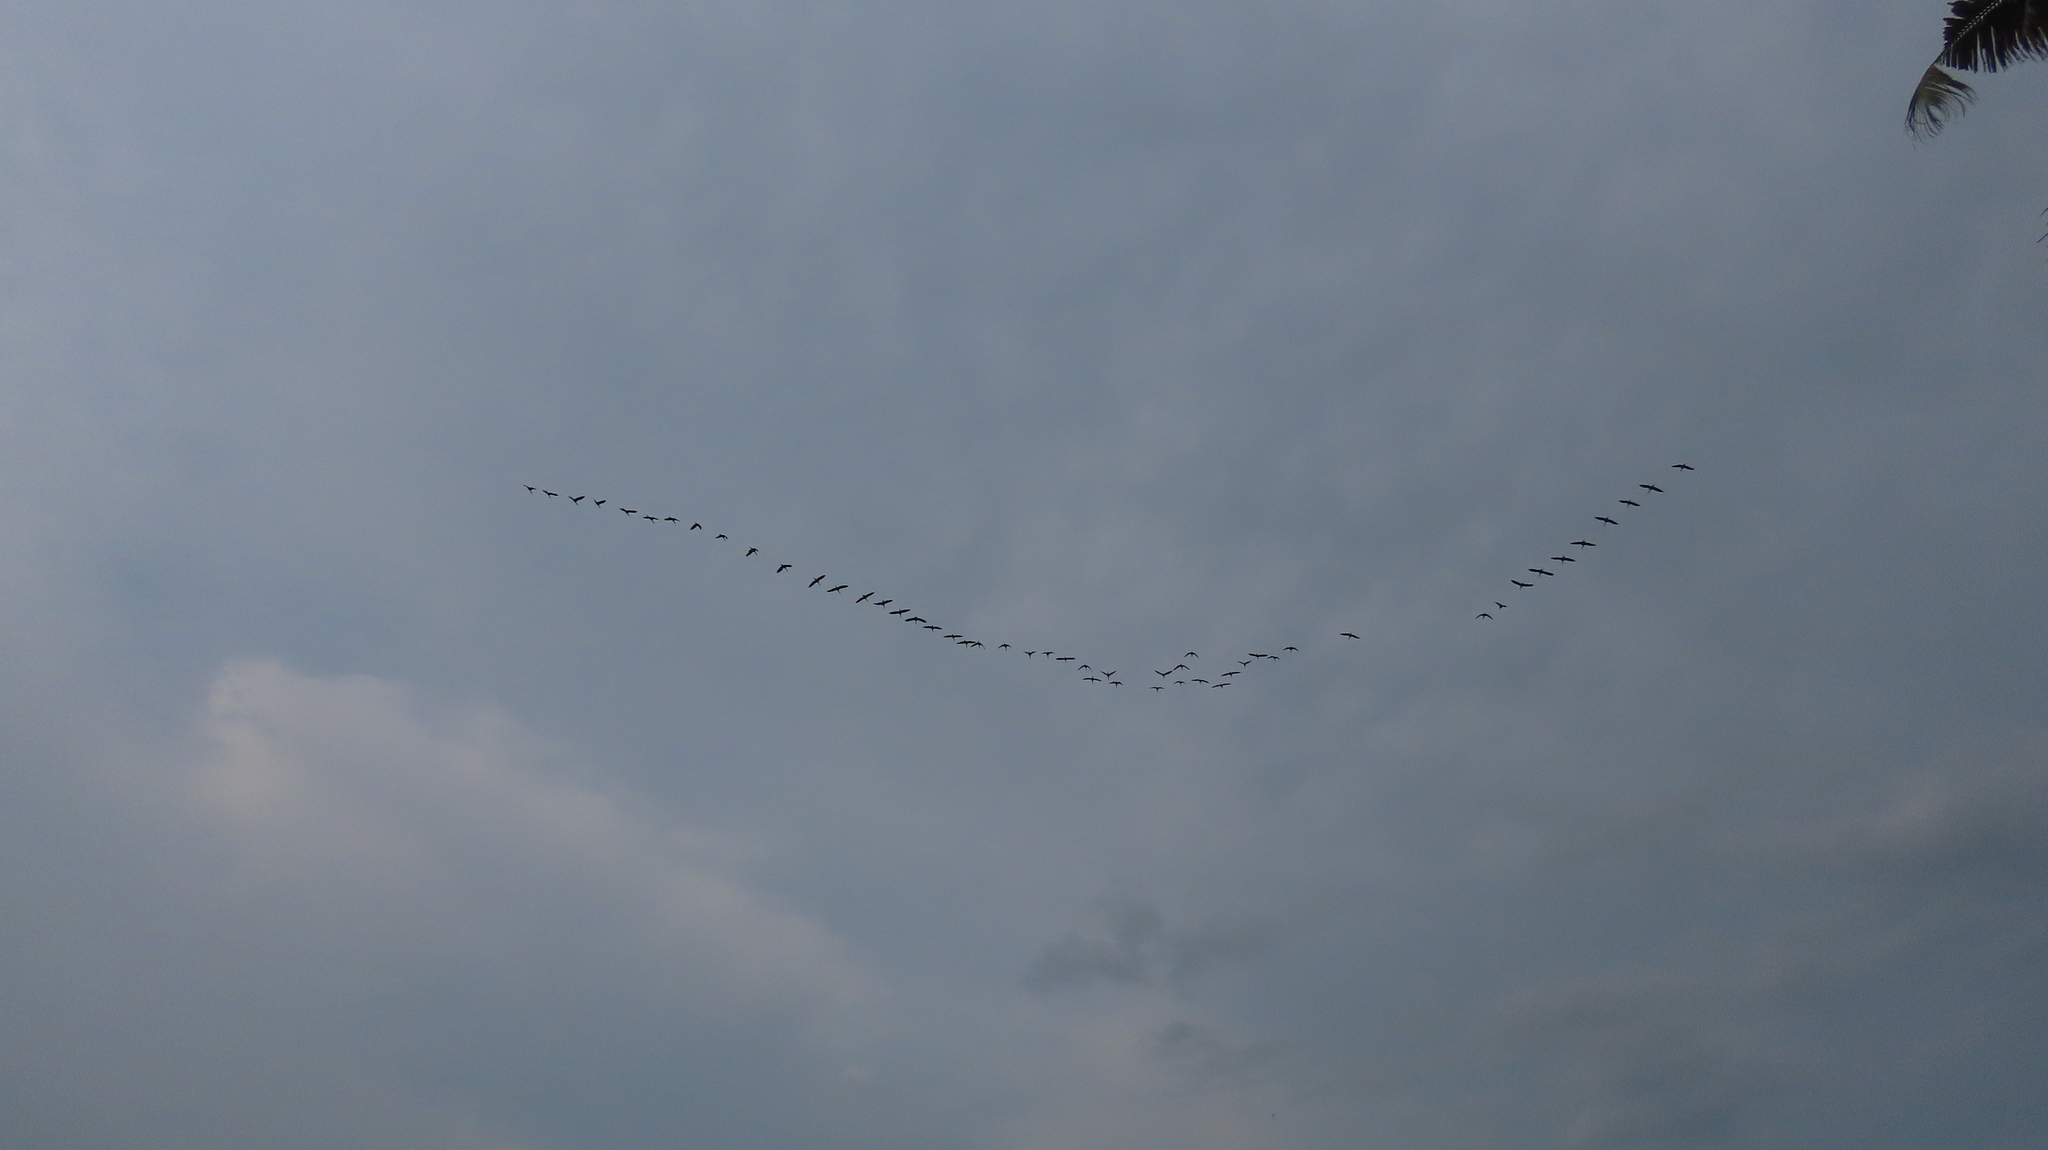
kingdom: Animalia
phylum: Chordata
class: Aves
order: Pelecaniformes
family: Threskiornithidae
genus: Plegadis
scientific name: Plegadis falcinellus
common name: Glossy ibis
